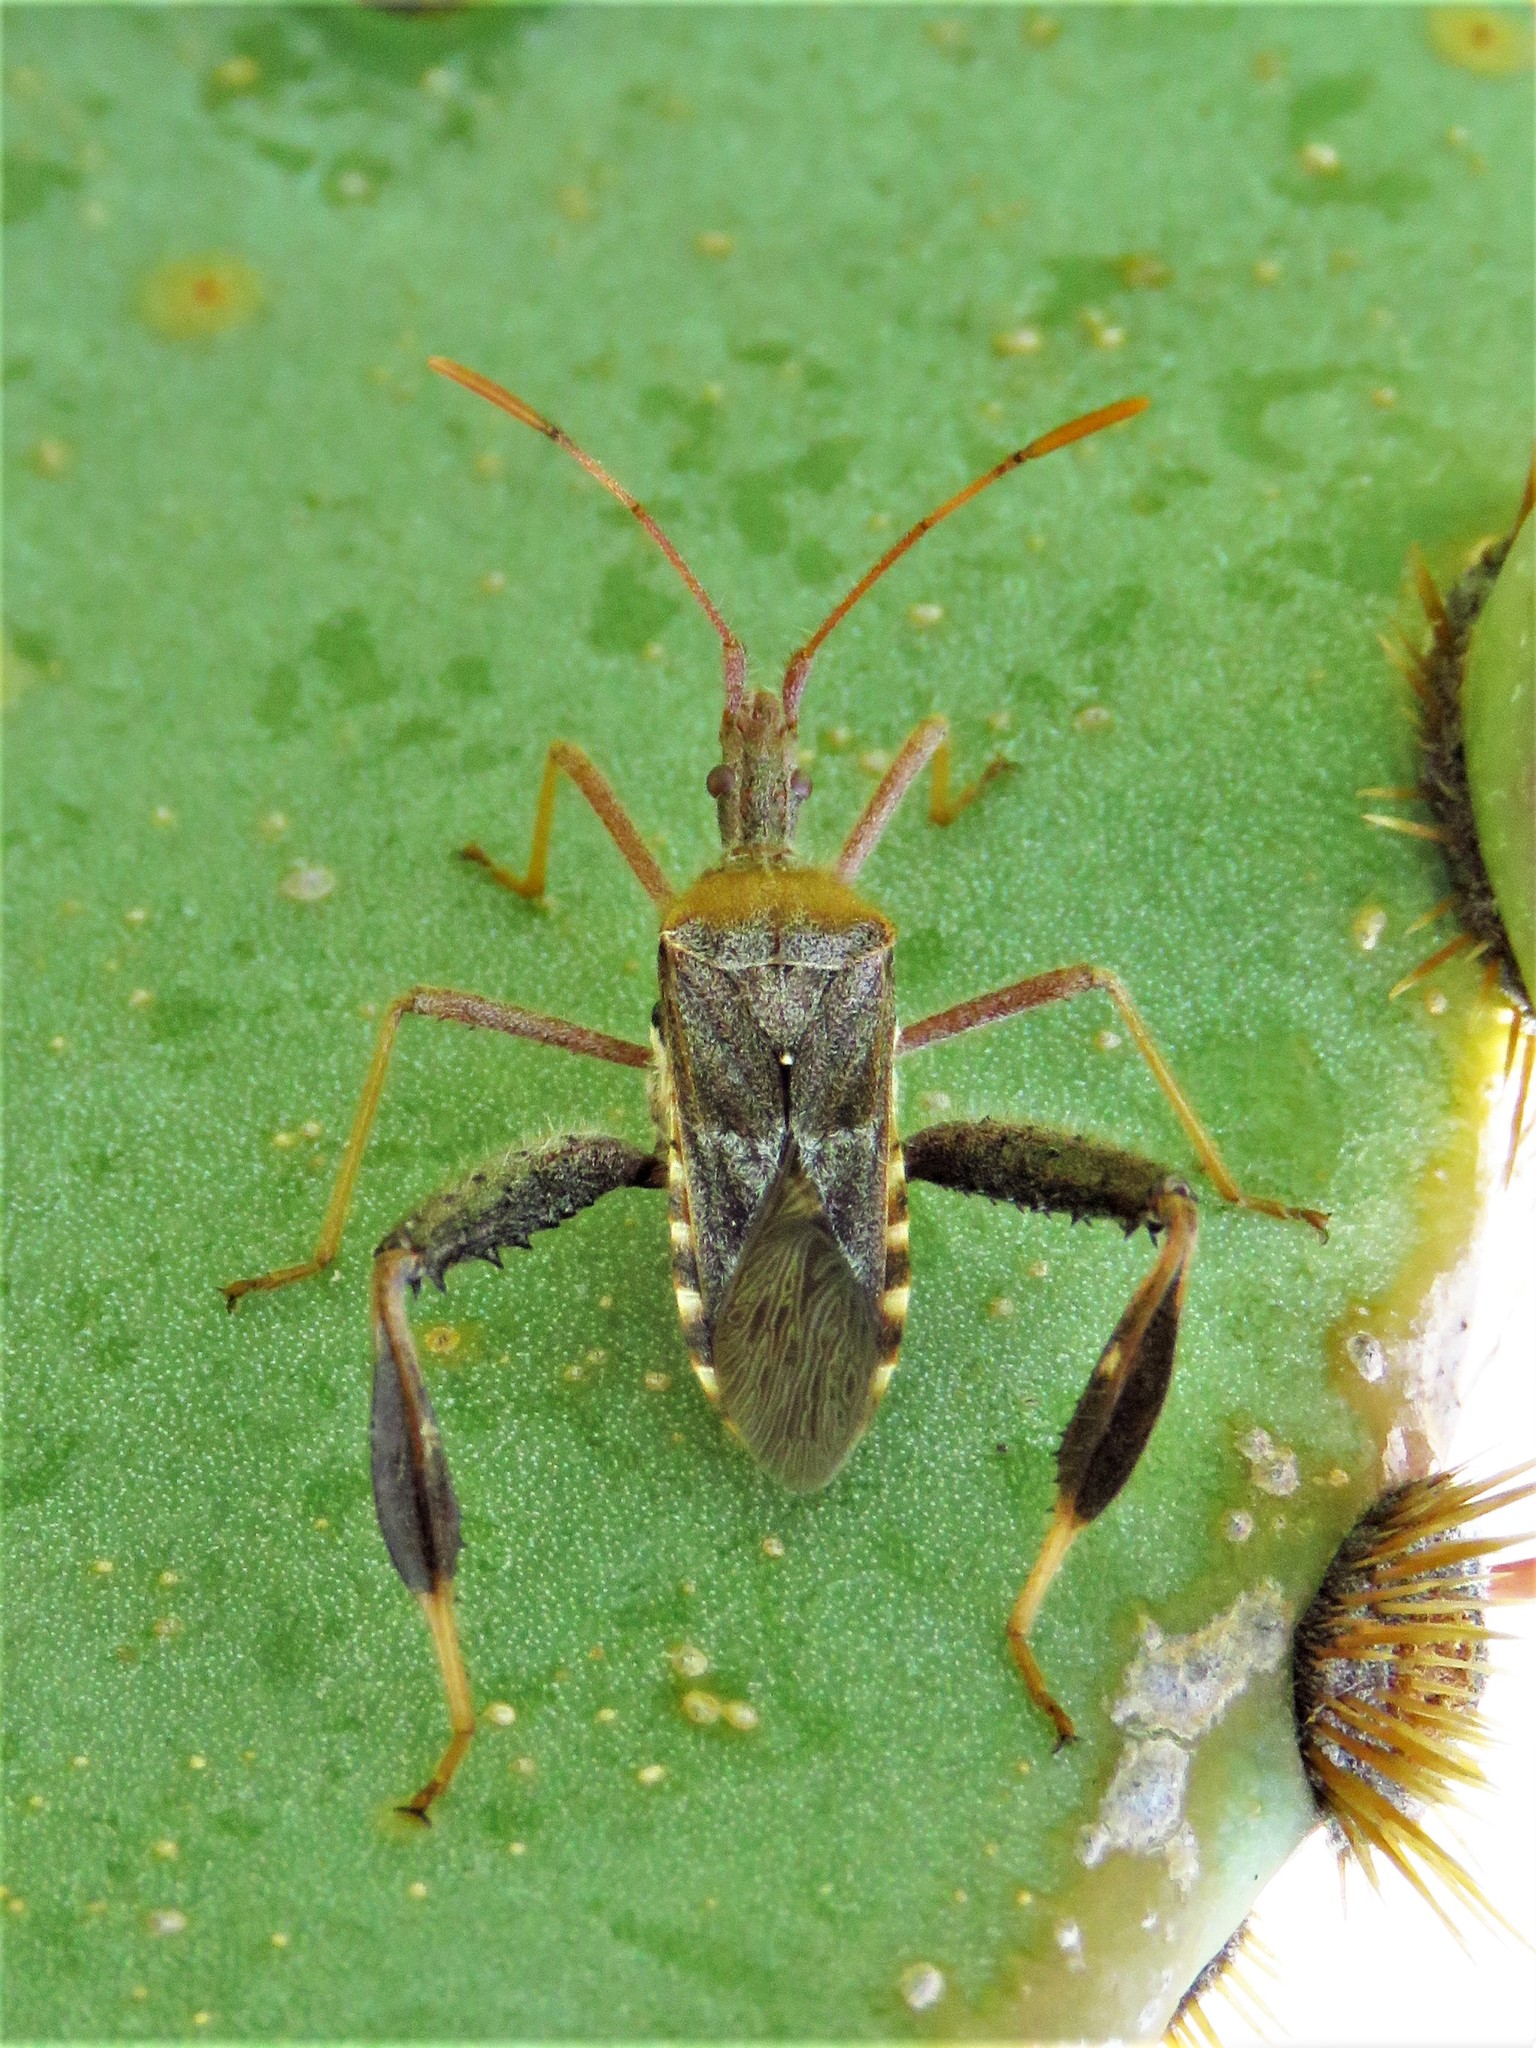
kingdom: Animalia
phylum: Arthropoda
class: Insecta
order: Hemiptera
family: Coreidae
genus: Narnia
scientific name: Narnia femorata
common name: Leaf-footed cactus bug
